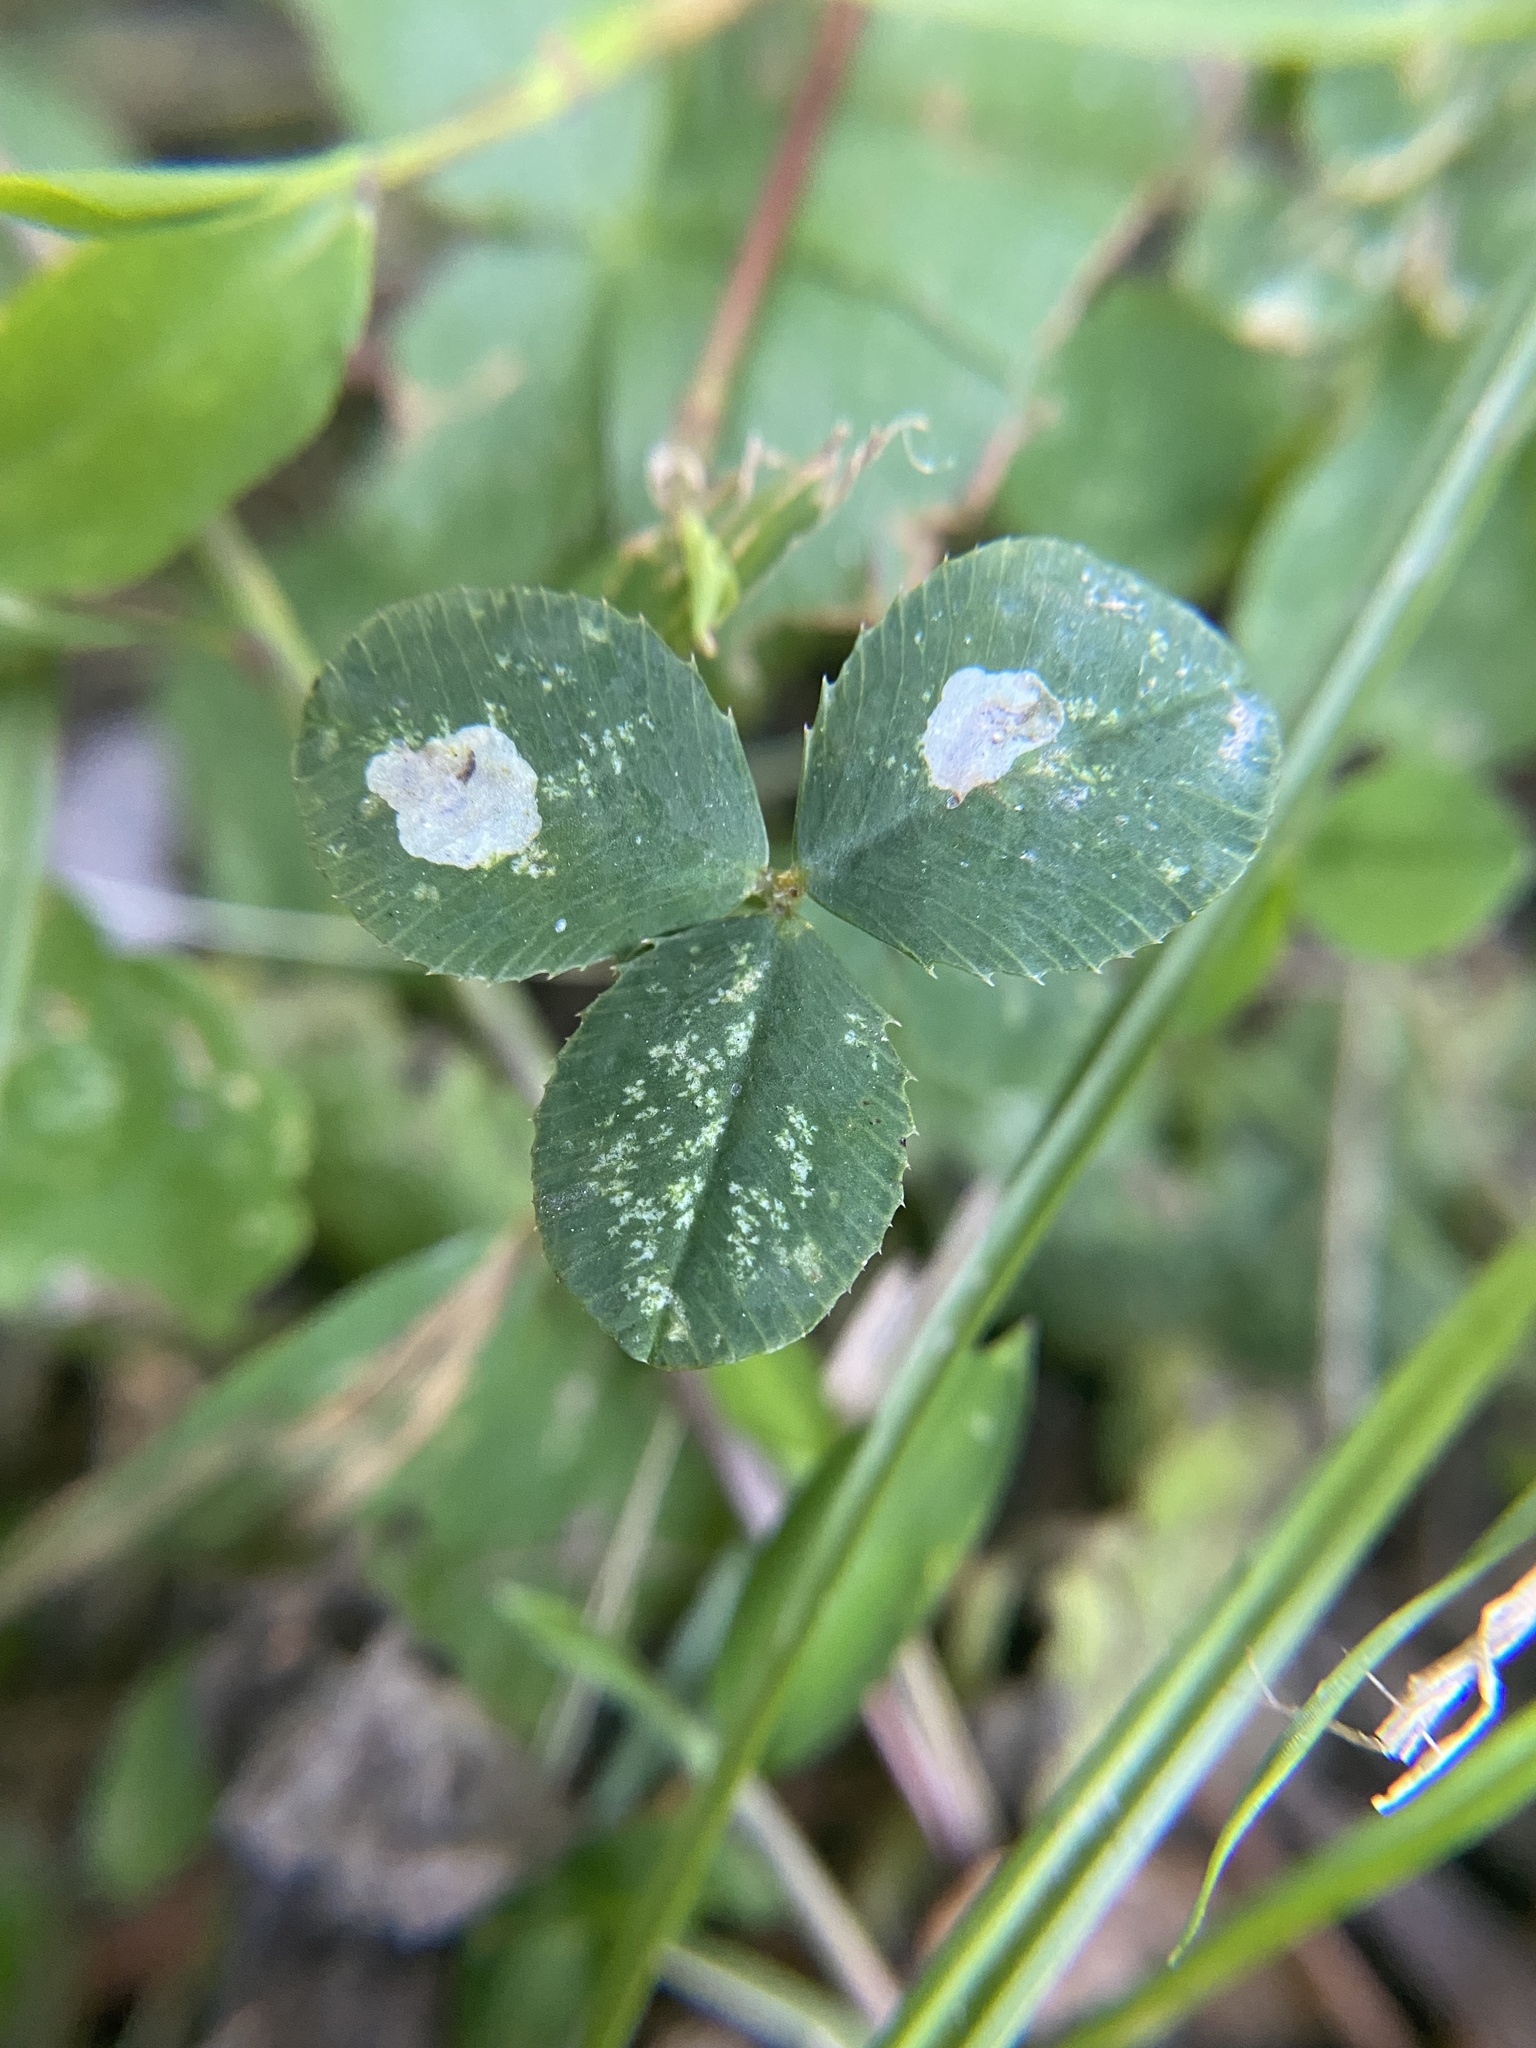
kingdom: Animalia
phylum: Arthropoda
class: Insecta
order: Lepidoptera
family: Gracillariidae
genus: Porphyrosela
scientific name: Porphyrosela minuta
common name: Leaf miner moth
